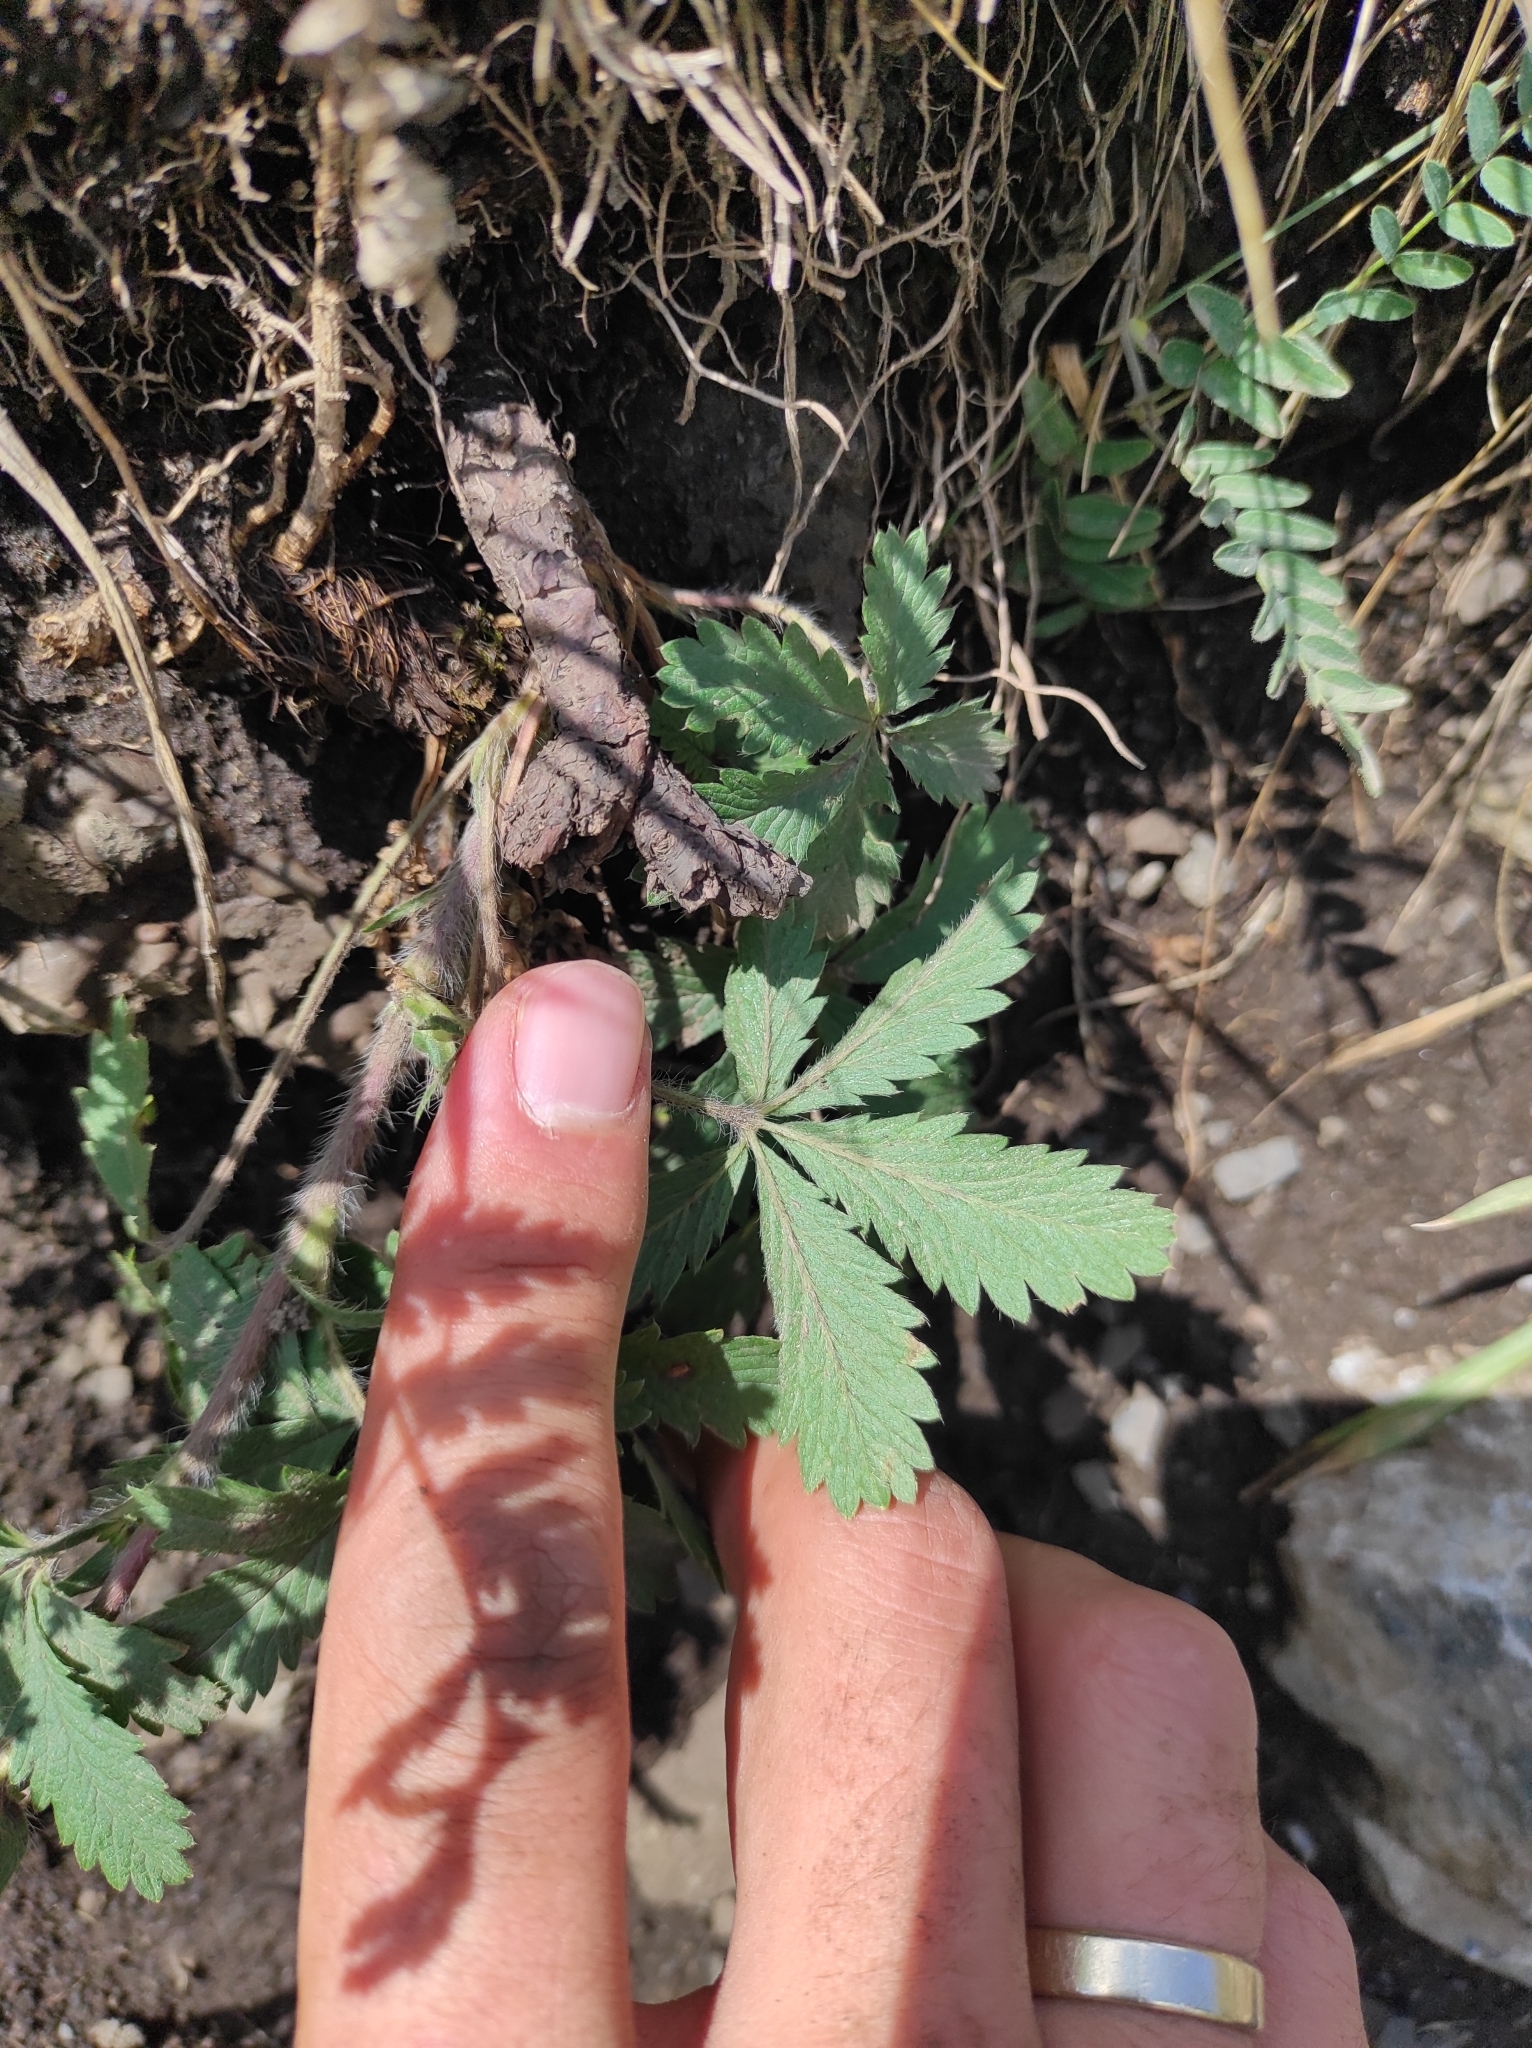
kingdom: Plantae
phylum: Tracheophyta
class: Magnoliopsida
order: Rosales
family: Rosaceae
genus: Potentilla
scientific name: Potentilla recta
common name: Sulphur cinquefoil
